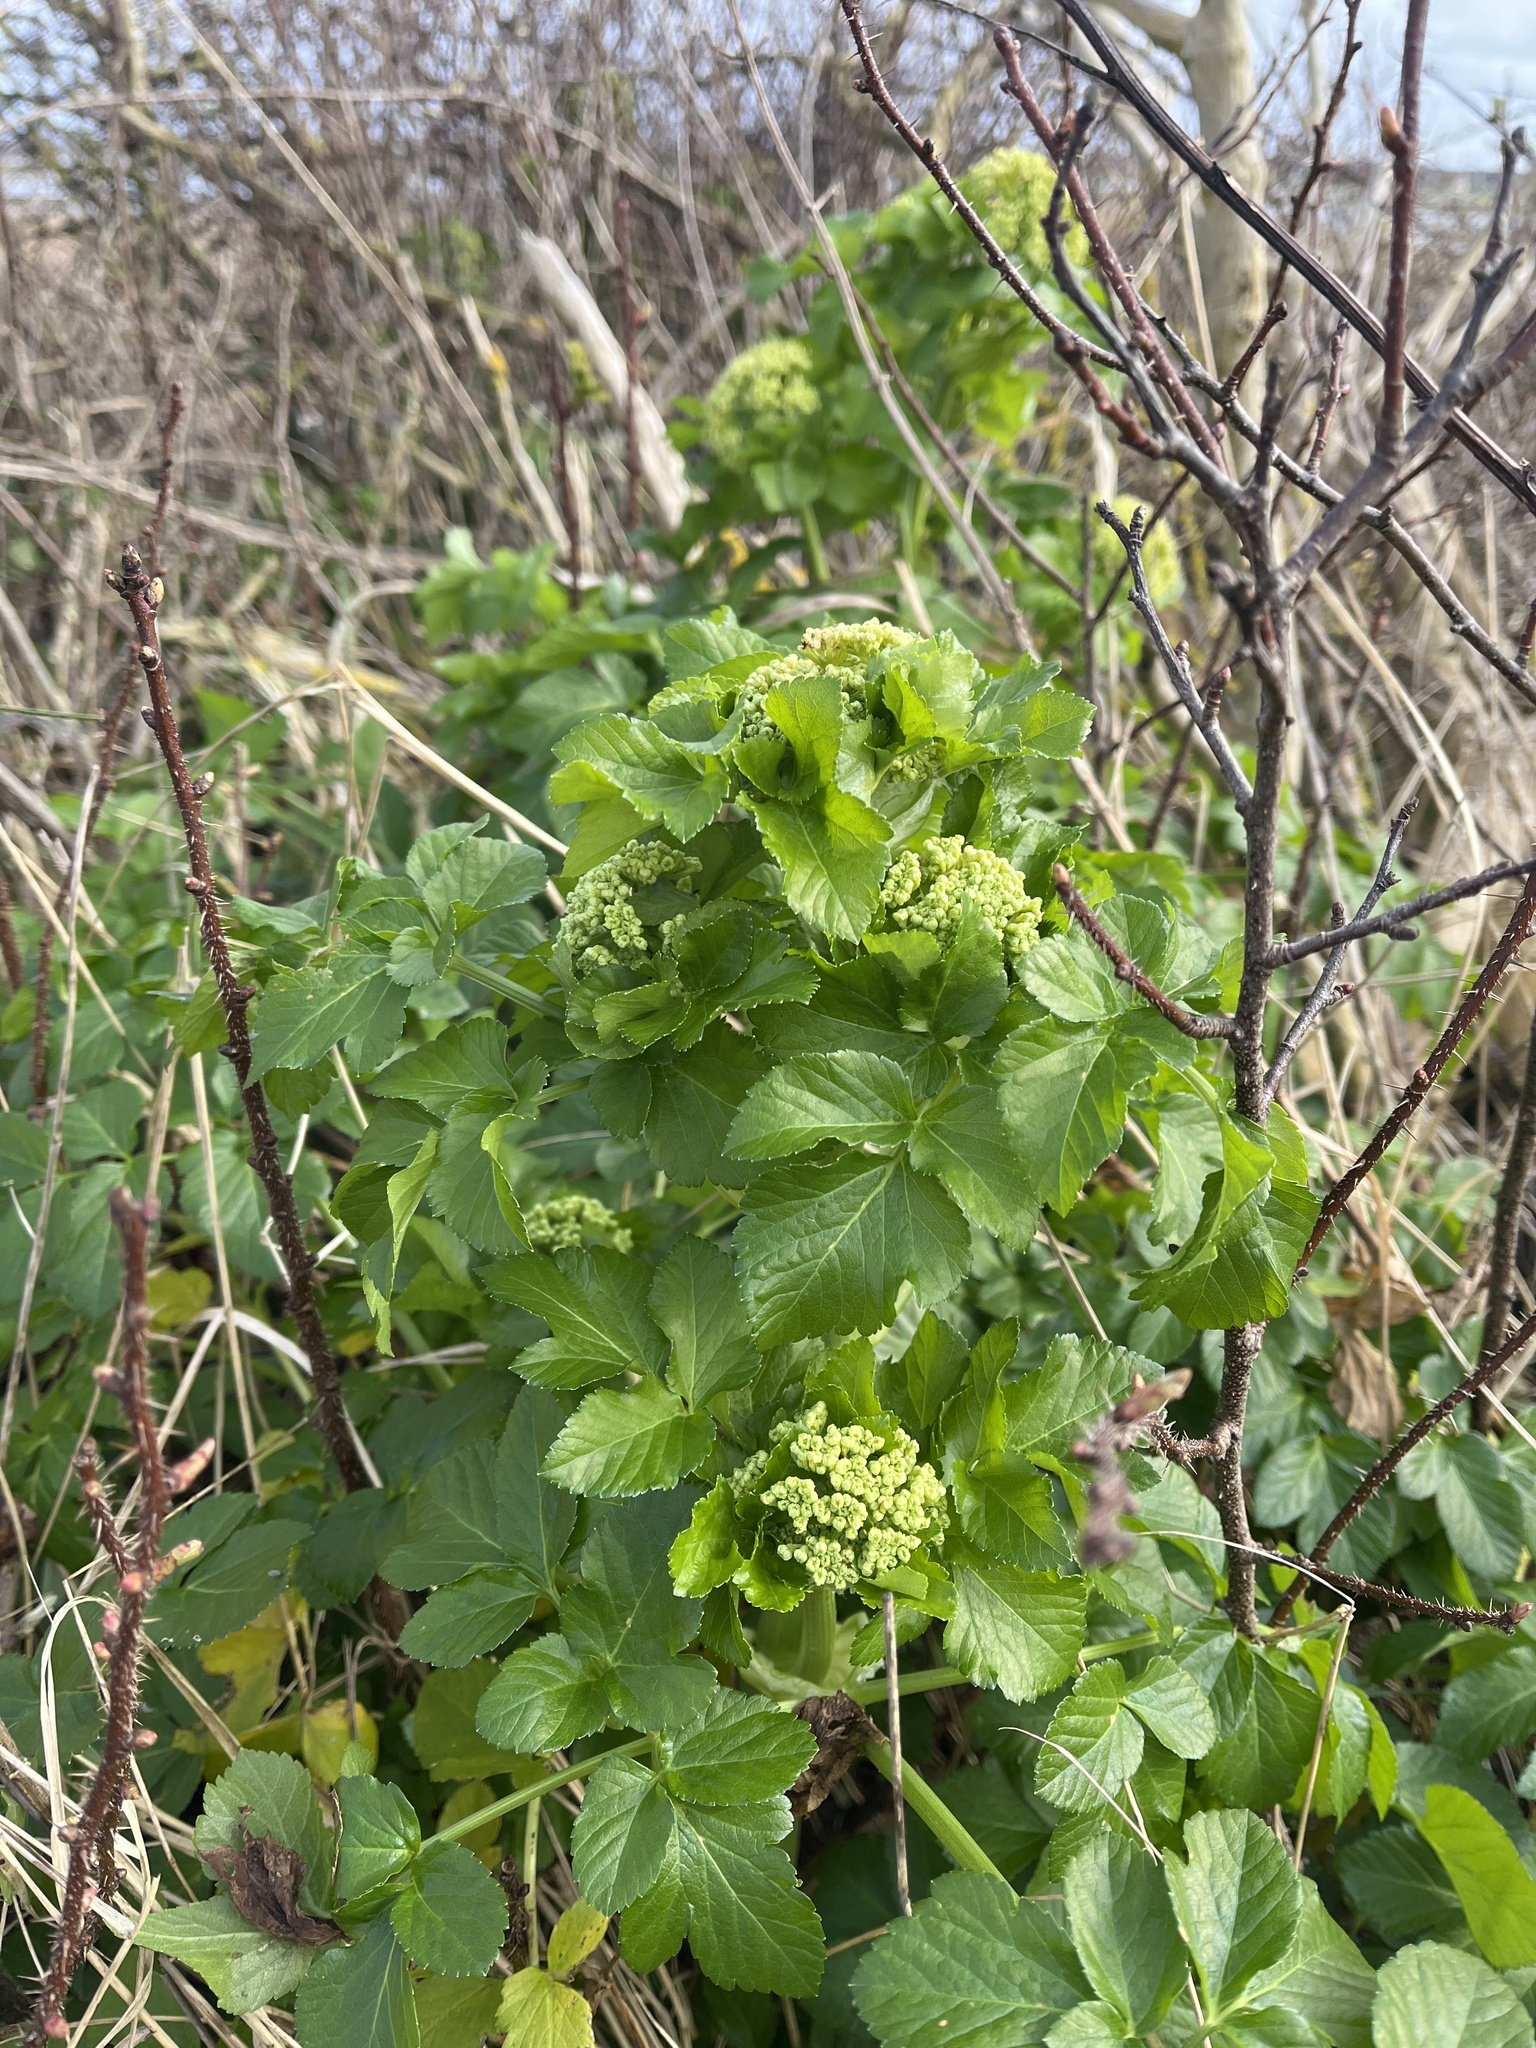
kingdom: Plantae
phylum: Tracheophyta
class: Magnoliopsida
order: Apiales
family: Apiaceae
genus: Smyrnium
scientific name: Smyrnium olusatrum
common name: Alexanders
